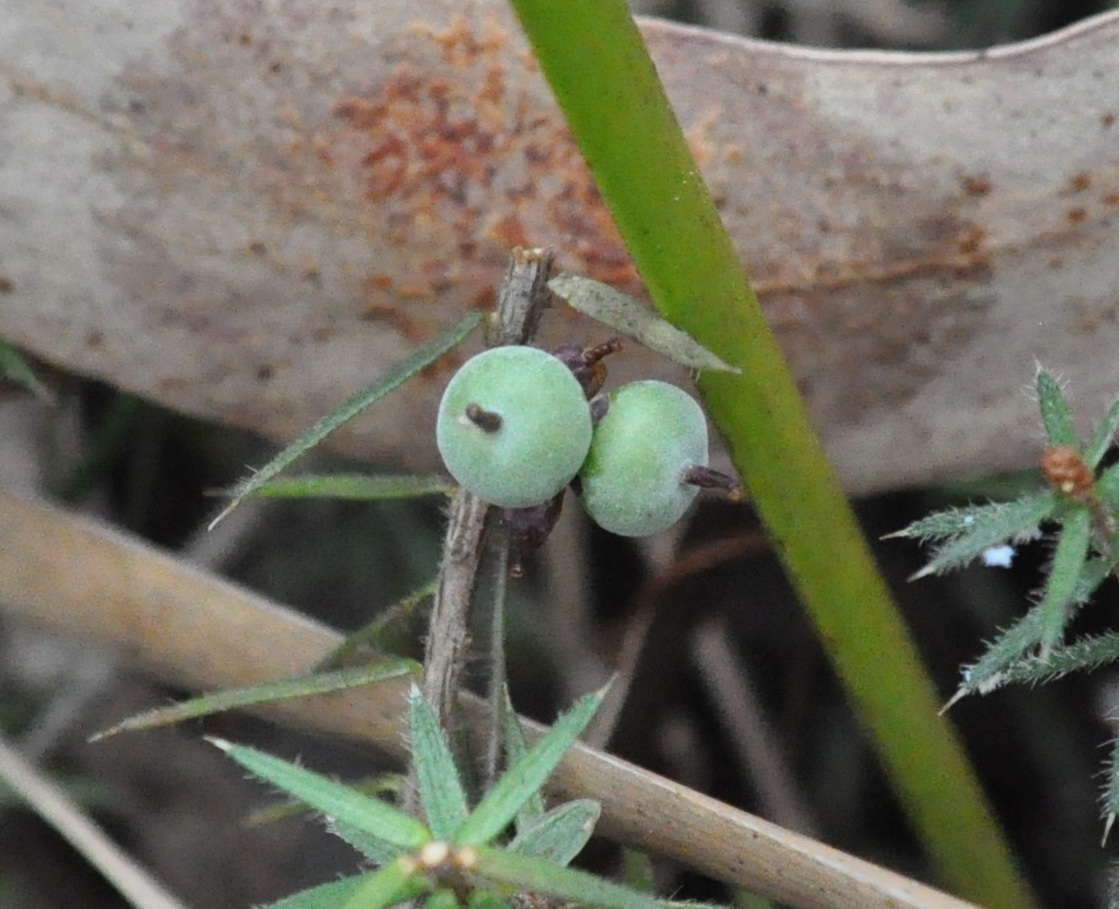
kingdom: Plantae
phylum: Tracheophyta
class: Magnoliopsida
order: Ericales
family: Ericaceae
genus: Acrotriche
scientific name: Acrotriche serrulata
